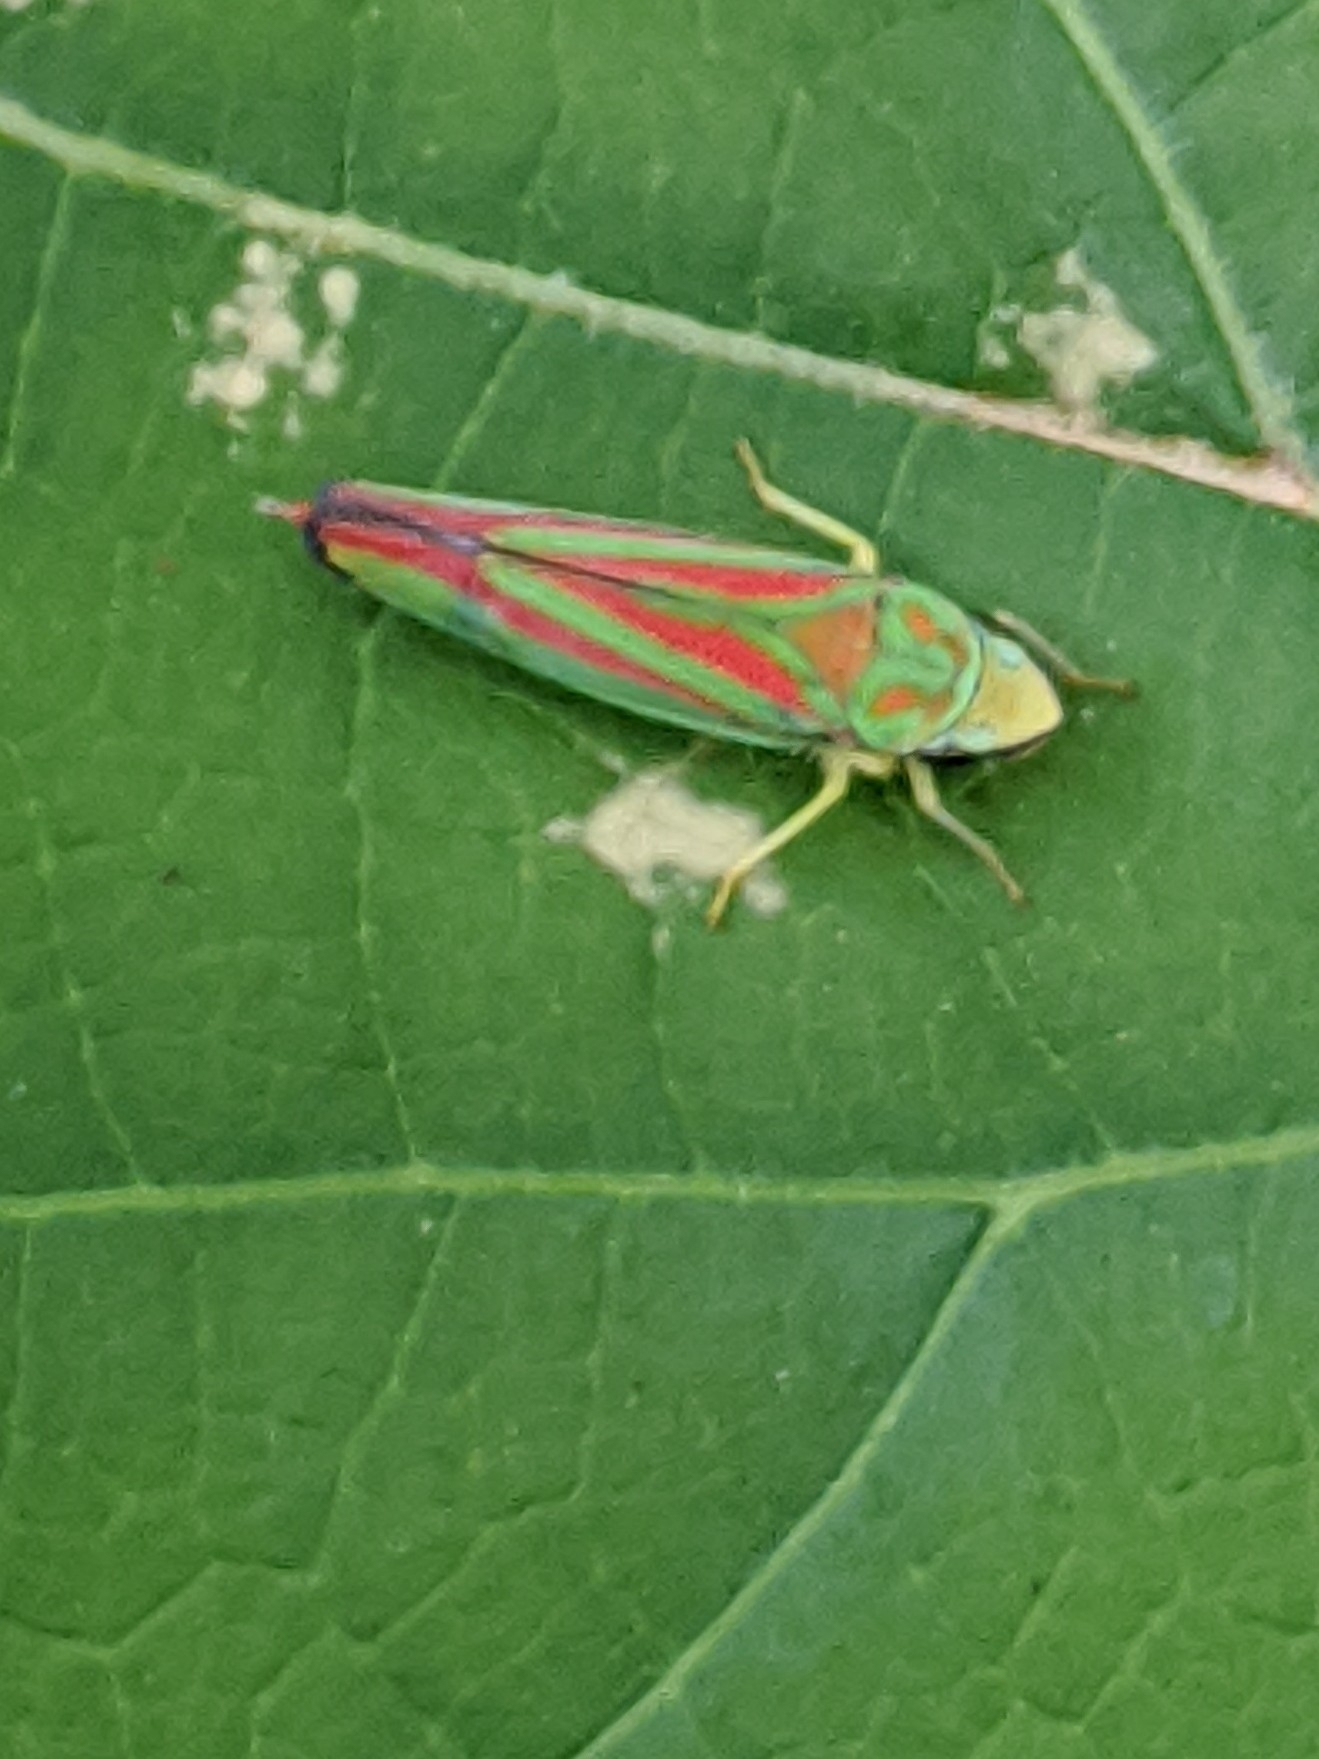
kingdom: Animalia
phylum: Arthropoda
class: Insecta
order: Hemiptera
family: Cicadellidae
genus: Graphocephala
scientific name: Graphocephala coccinea
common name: Candy-striped leafhopper
